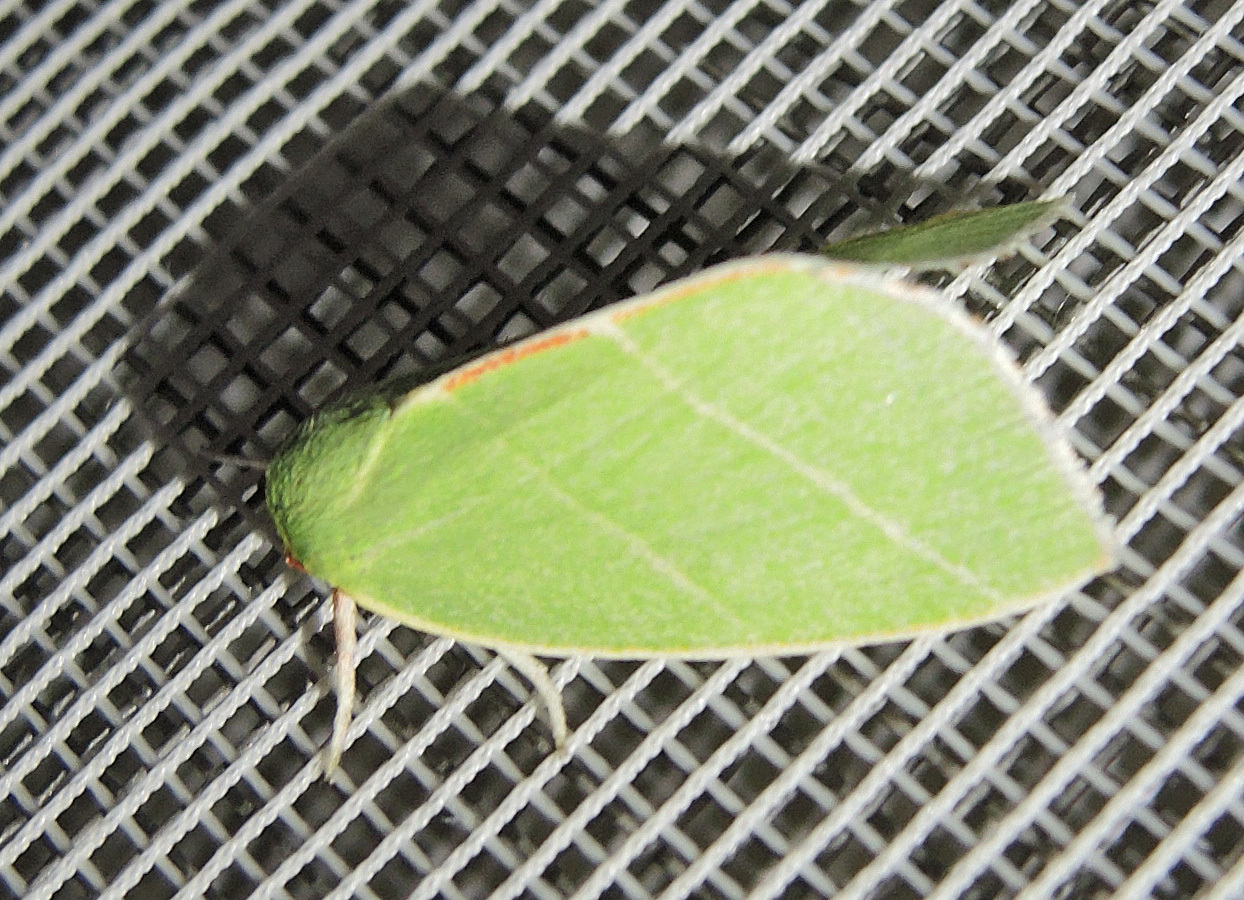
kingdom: Animalia
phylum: Arthropoda
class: Insecta
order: Lepidoptera
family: Nolidae
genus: Bena
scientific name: Bena bicolorana
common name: Scarce silver-lines
